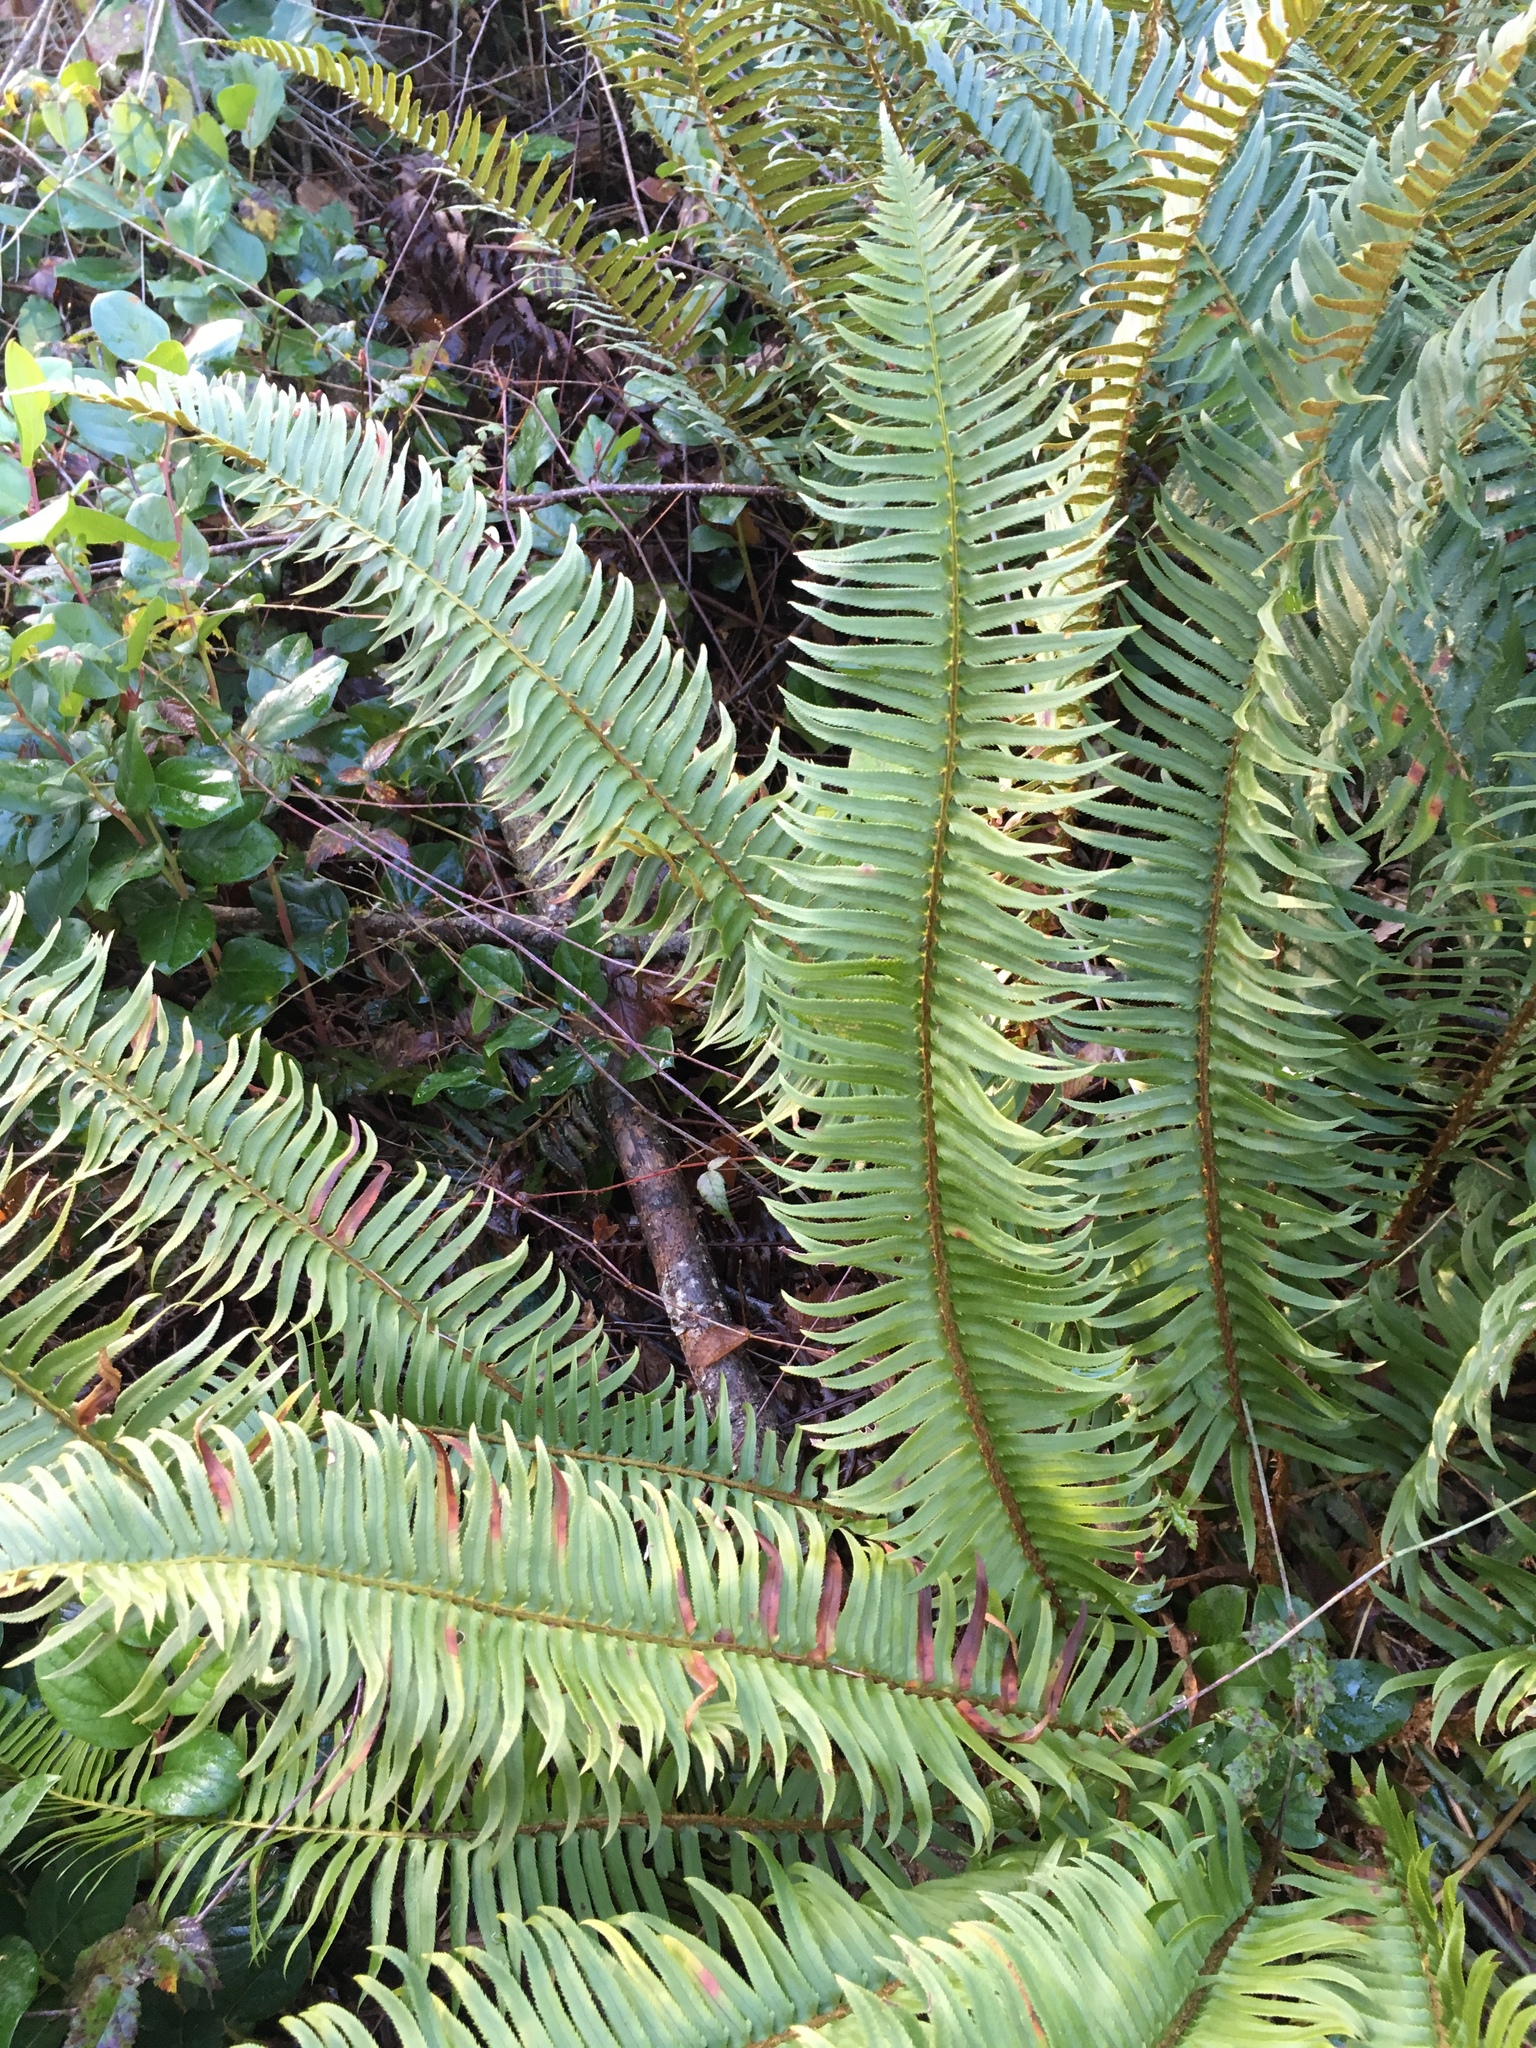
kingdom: Plantae
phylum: Tracheophyta
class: Polypodiopsida
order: Polypodiales
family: Dryopteridaceae
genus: Polystichum
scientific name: Polystichum munitum
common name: Western sword-fern
